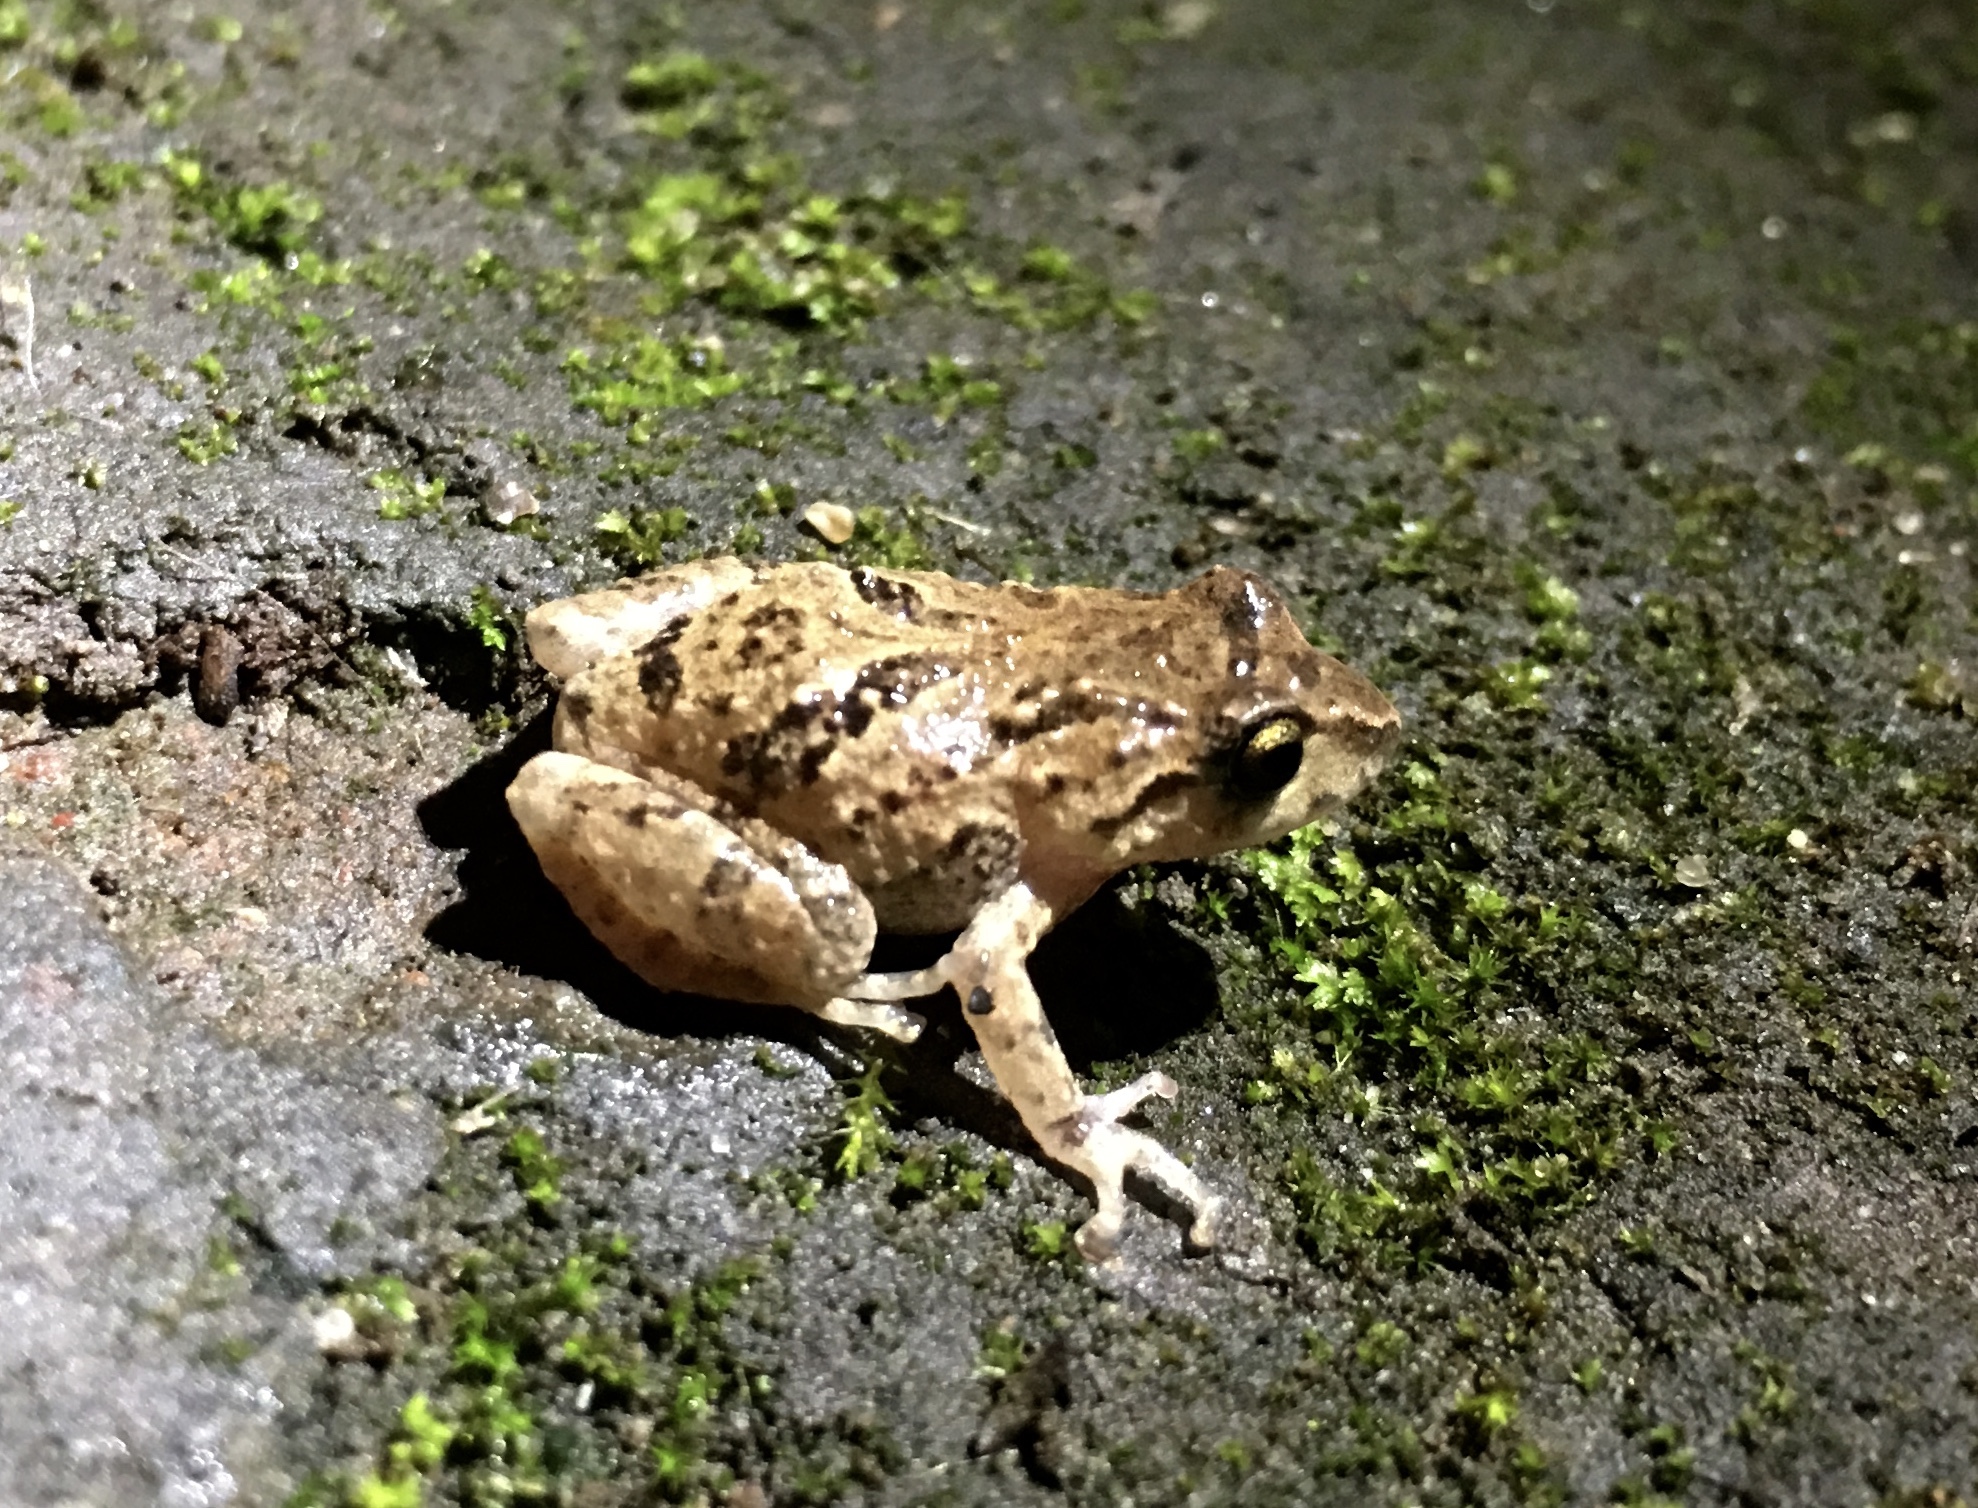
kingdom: Animalia
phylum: Chordata
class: Amphibia
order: Anura
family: Craugastoridae
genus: Pristimantis
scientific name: Pristimantis unistrigatus
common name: Striped robber frog
